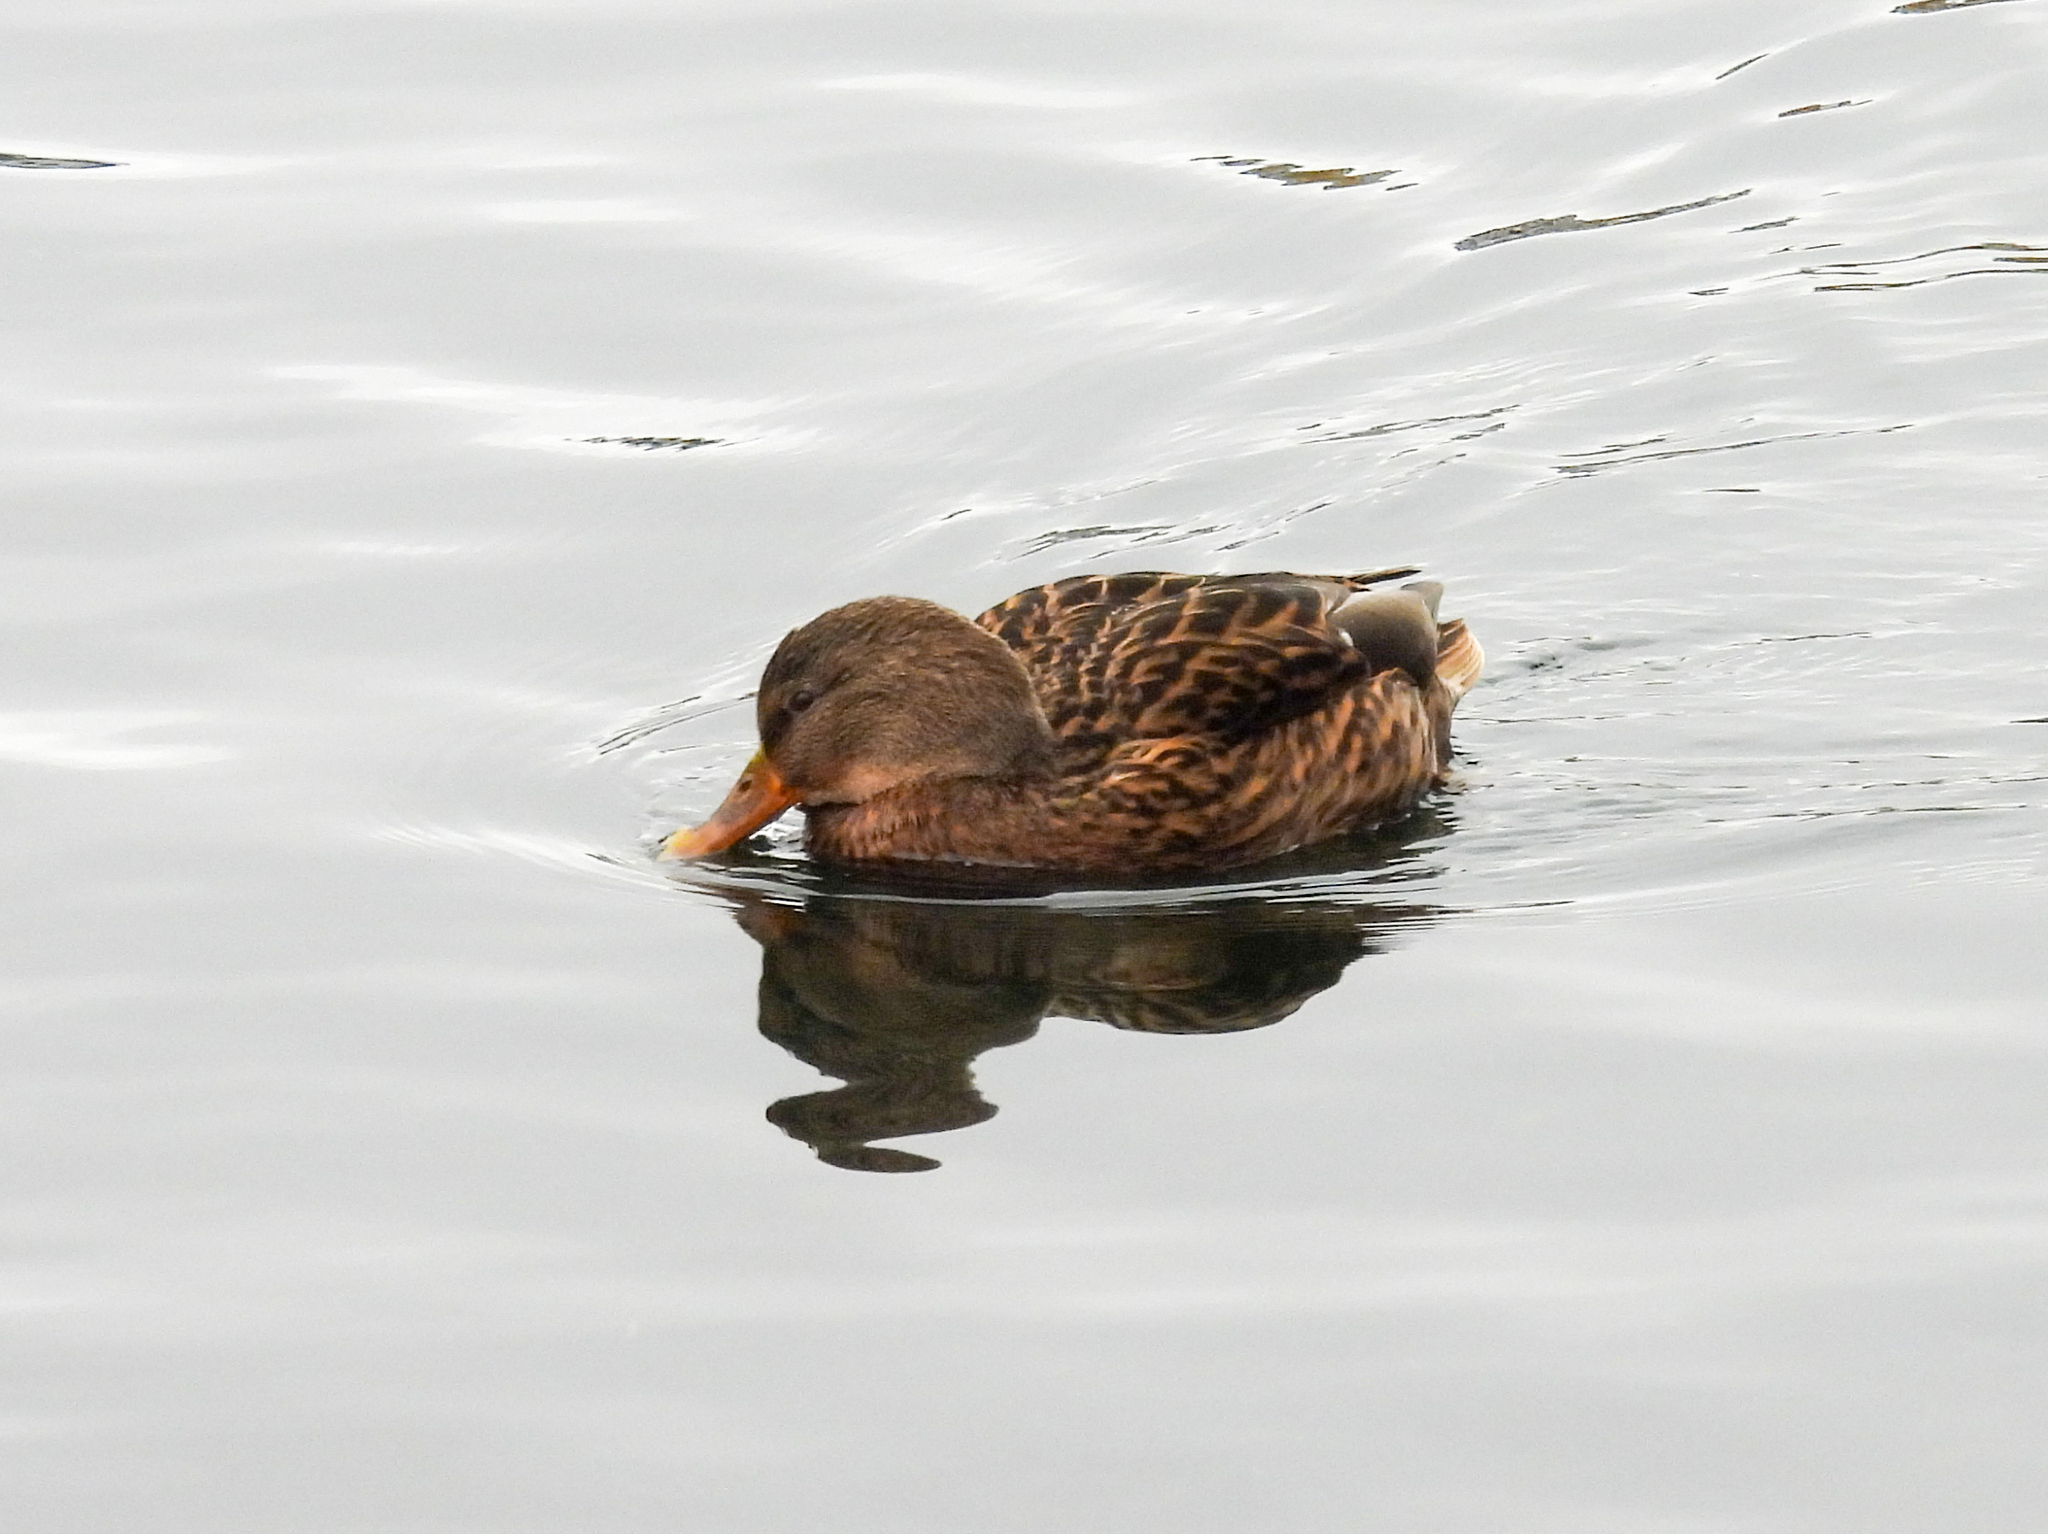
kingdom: Animalia
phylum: Chordata
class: Aves
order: Anseriformes
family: Anatidae
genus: Anas
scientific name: Anas platyrhynchos
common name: Mallard
